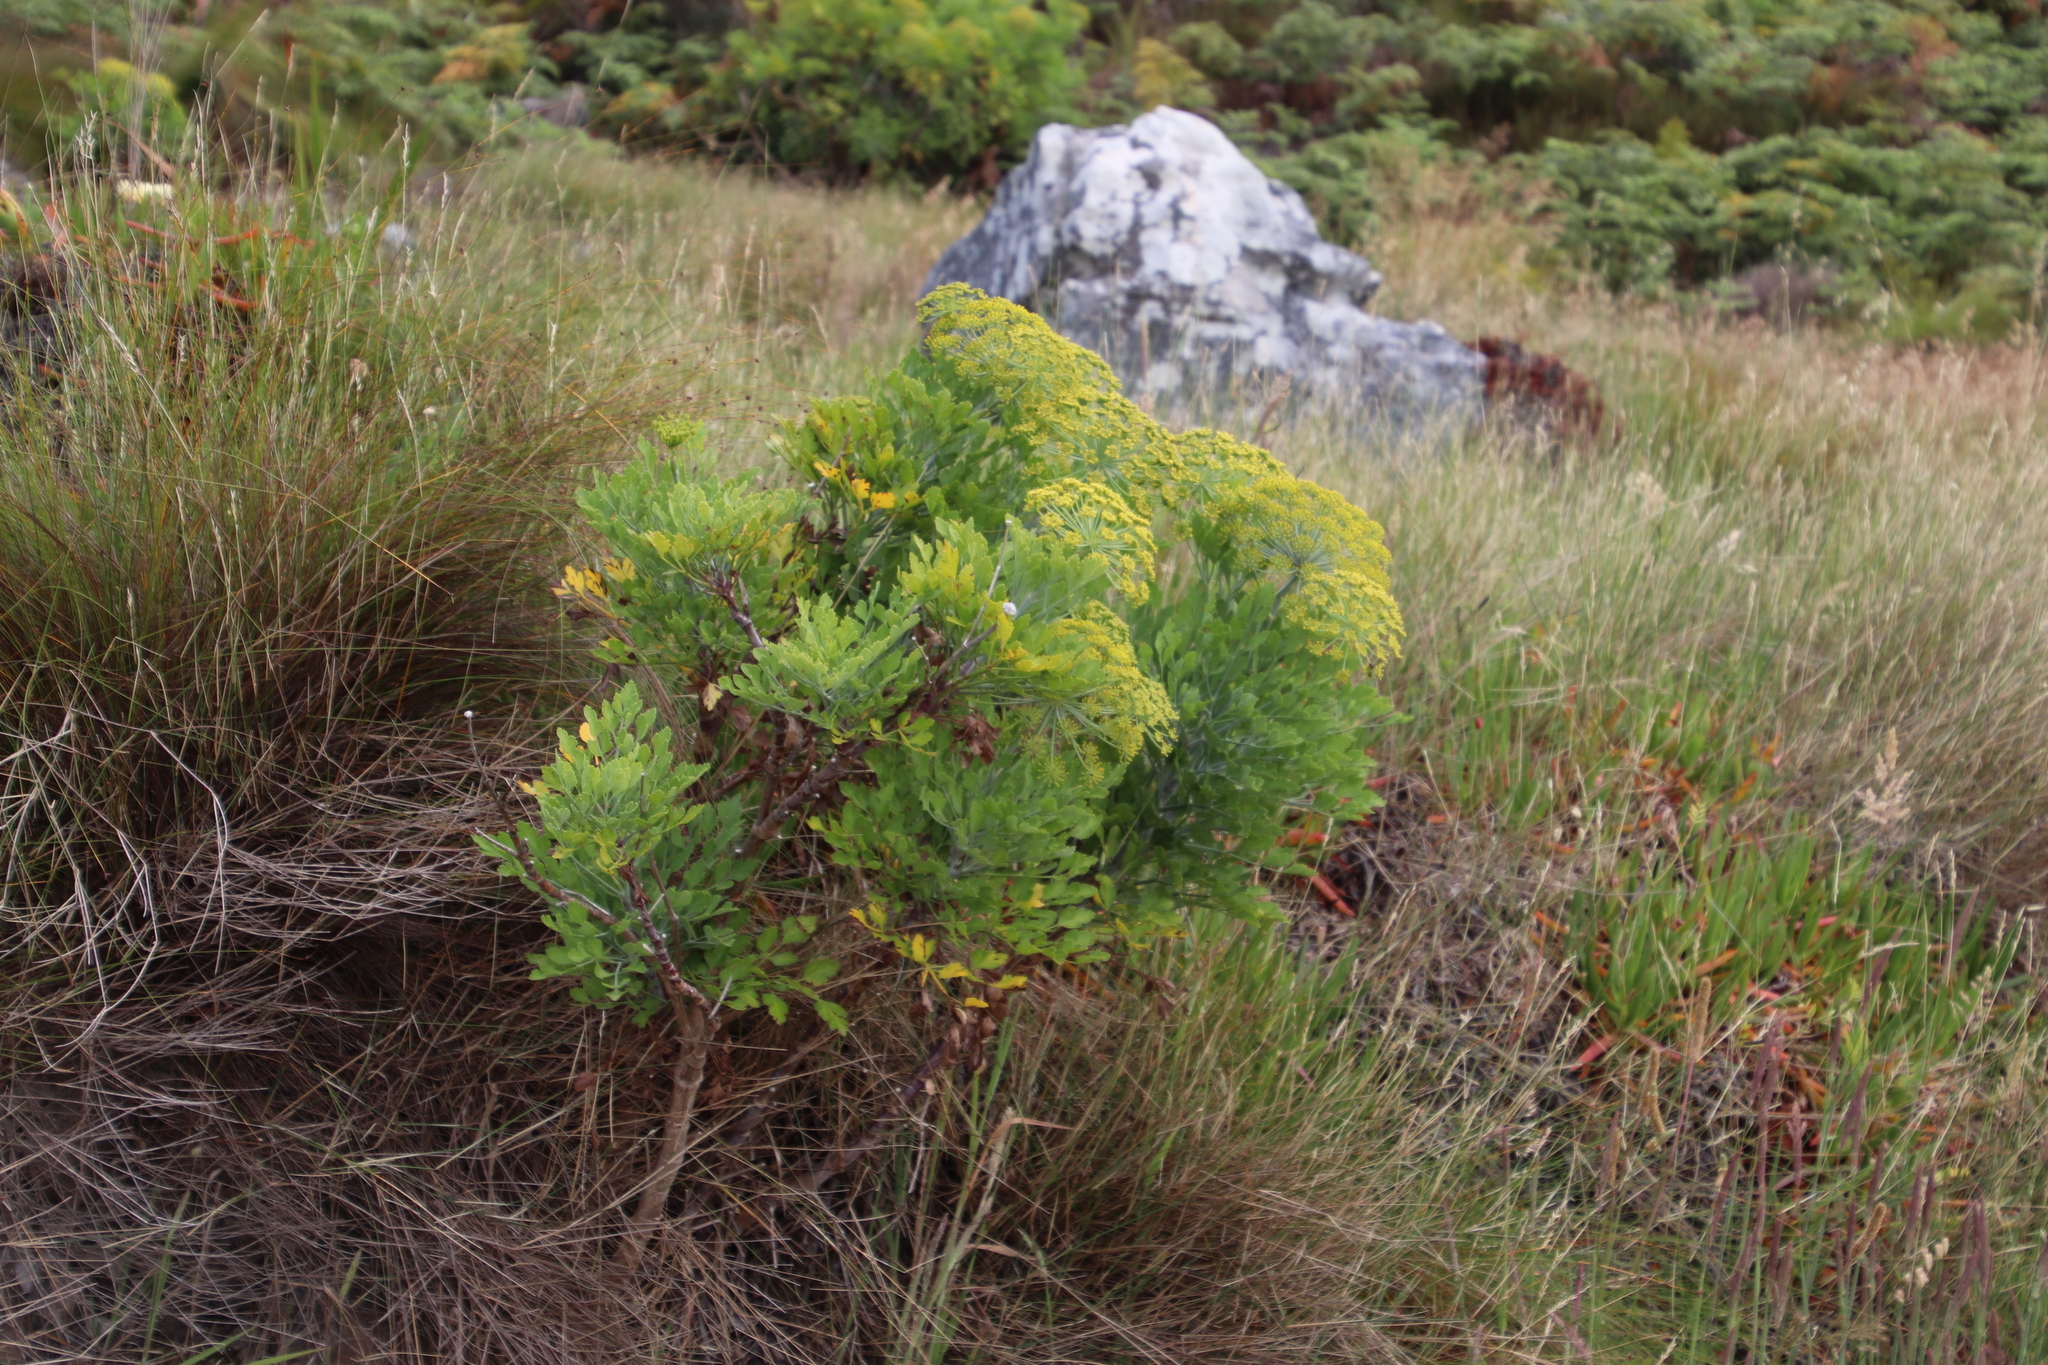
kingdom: Plantae
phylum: Tracheophyta
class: Magnoliopsida
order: Apiales
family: Apiaceae
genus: Notobubon
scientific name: Notobubon galbanum
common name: Blisterbush
